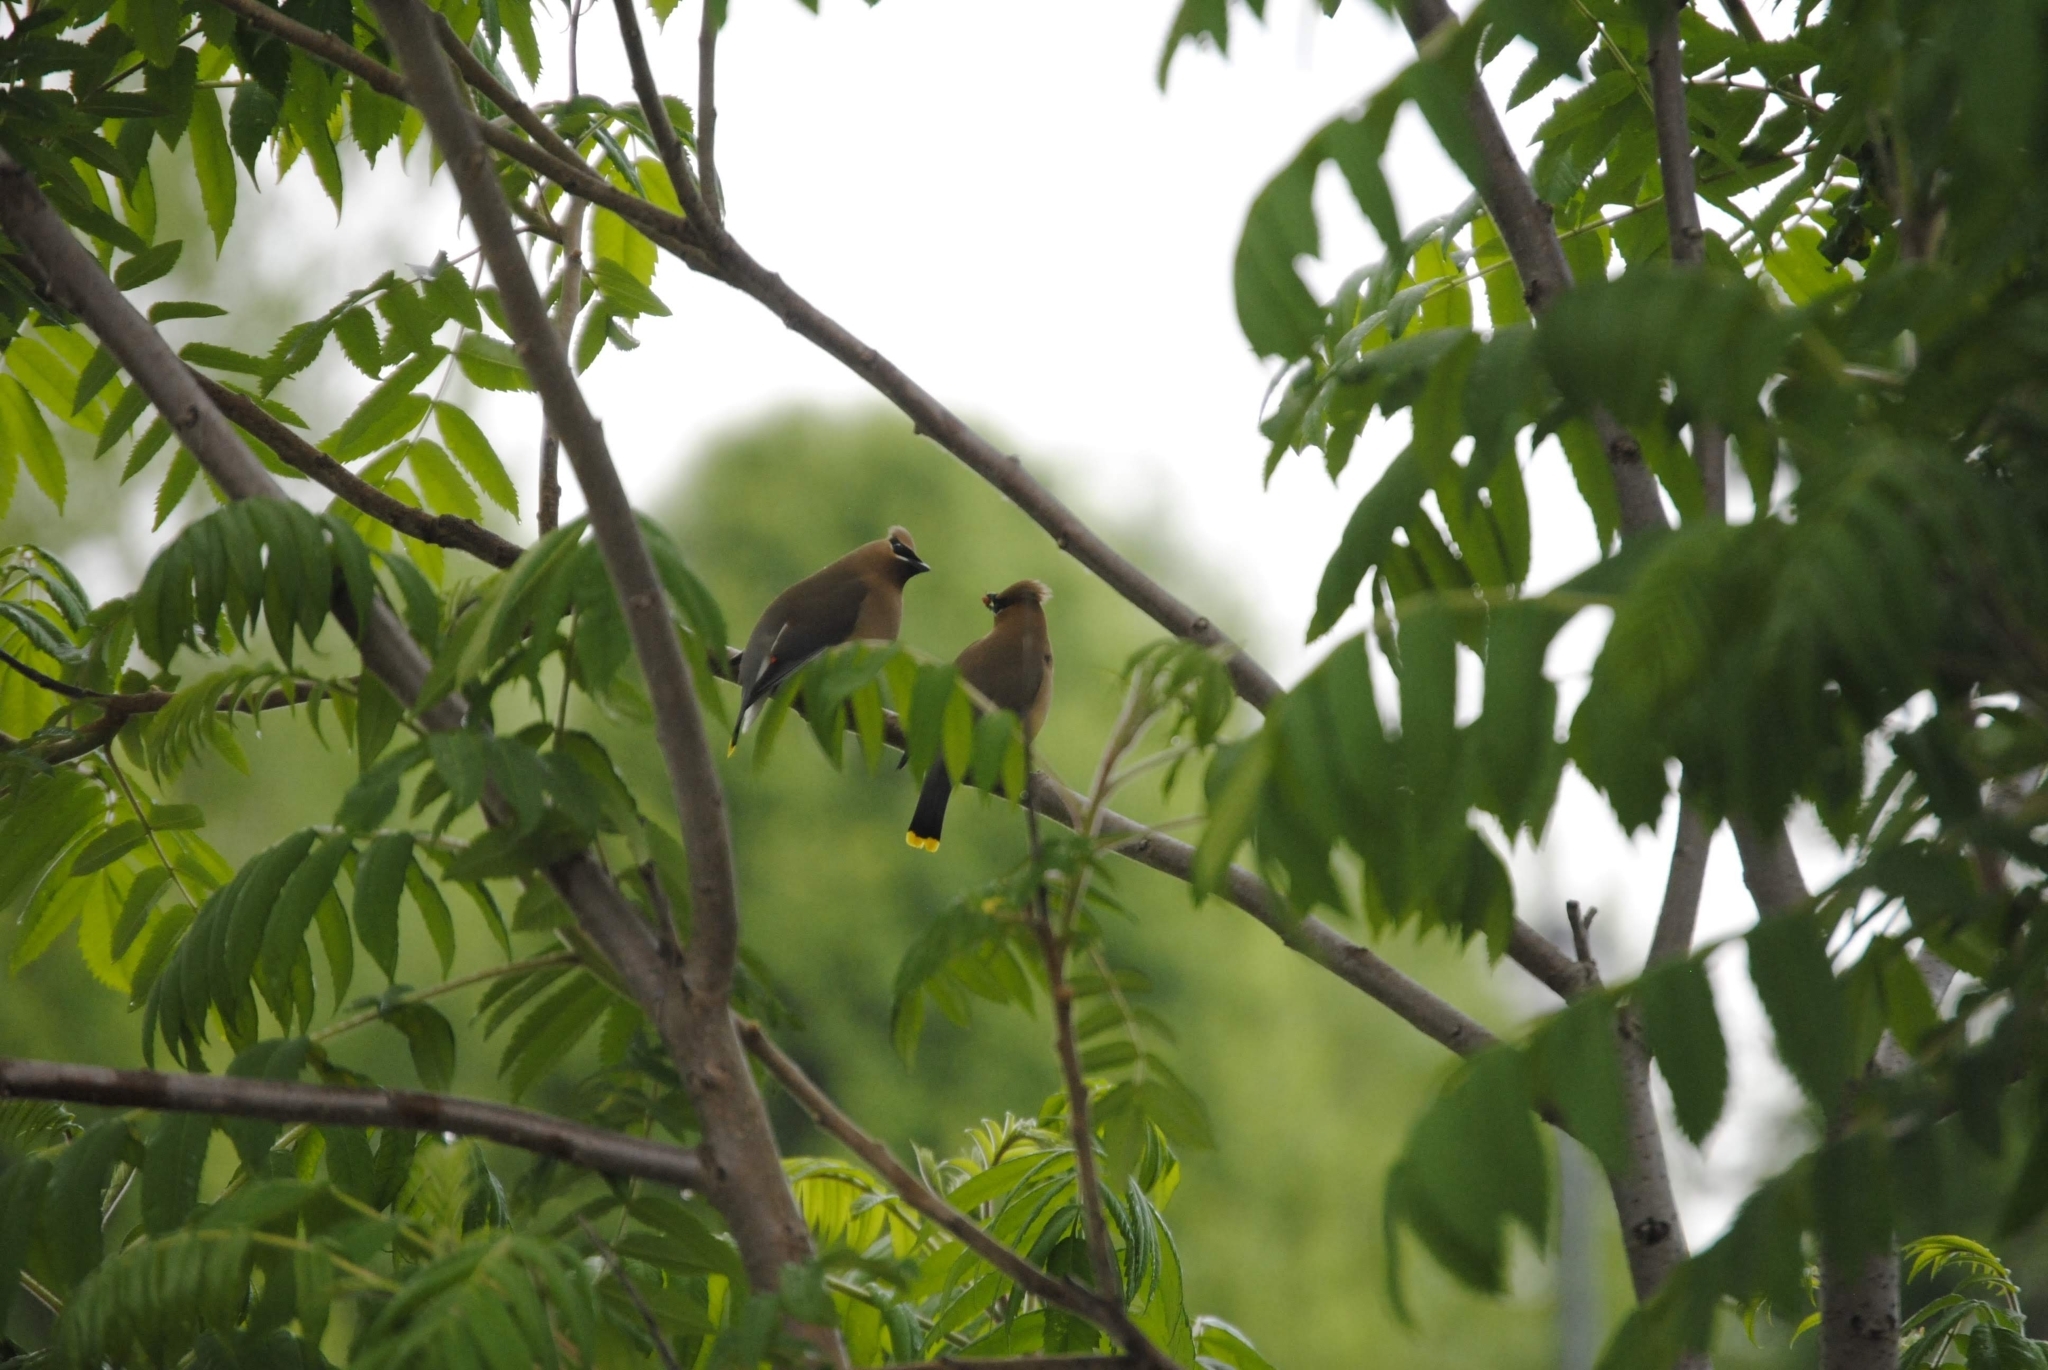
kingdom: Animalia
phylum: Chordata
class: Aves
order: Passeriformes
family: Bombycillidae
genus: Bombycilla
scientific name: Bombycilla cedrorum
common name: Cedar waxwing
